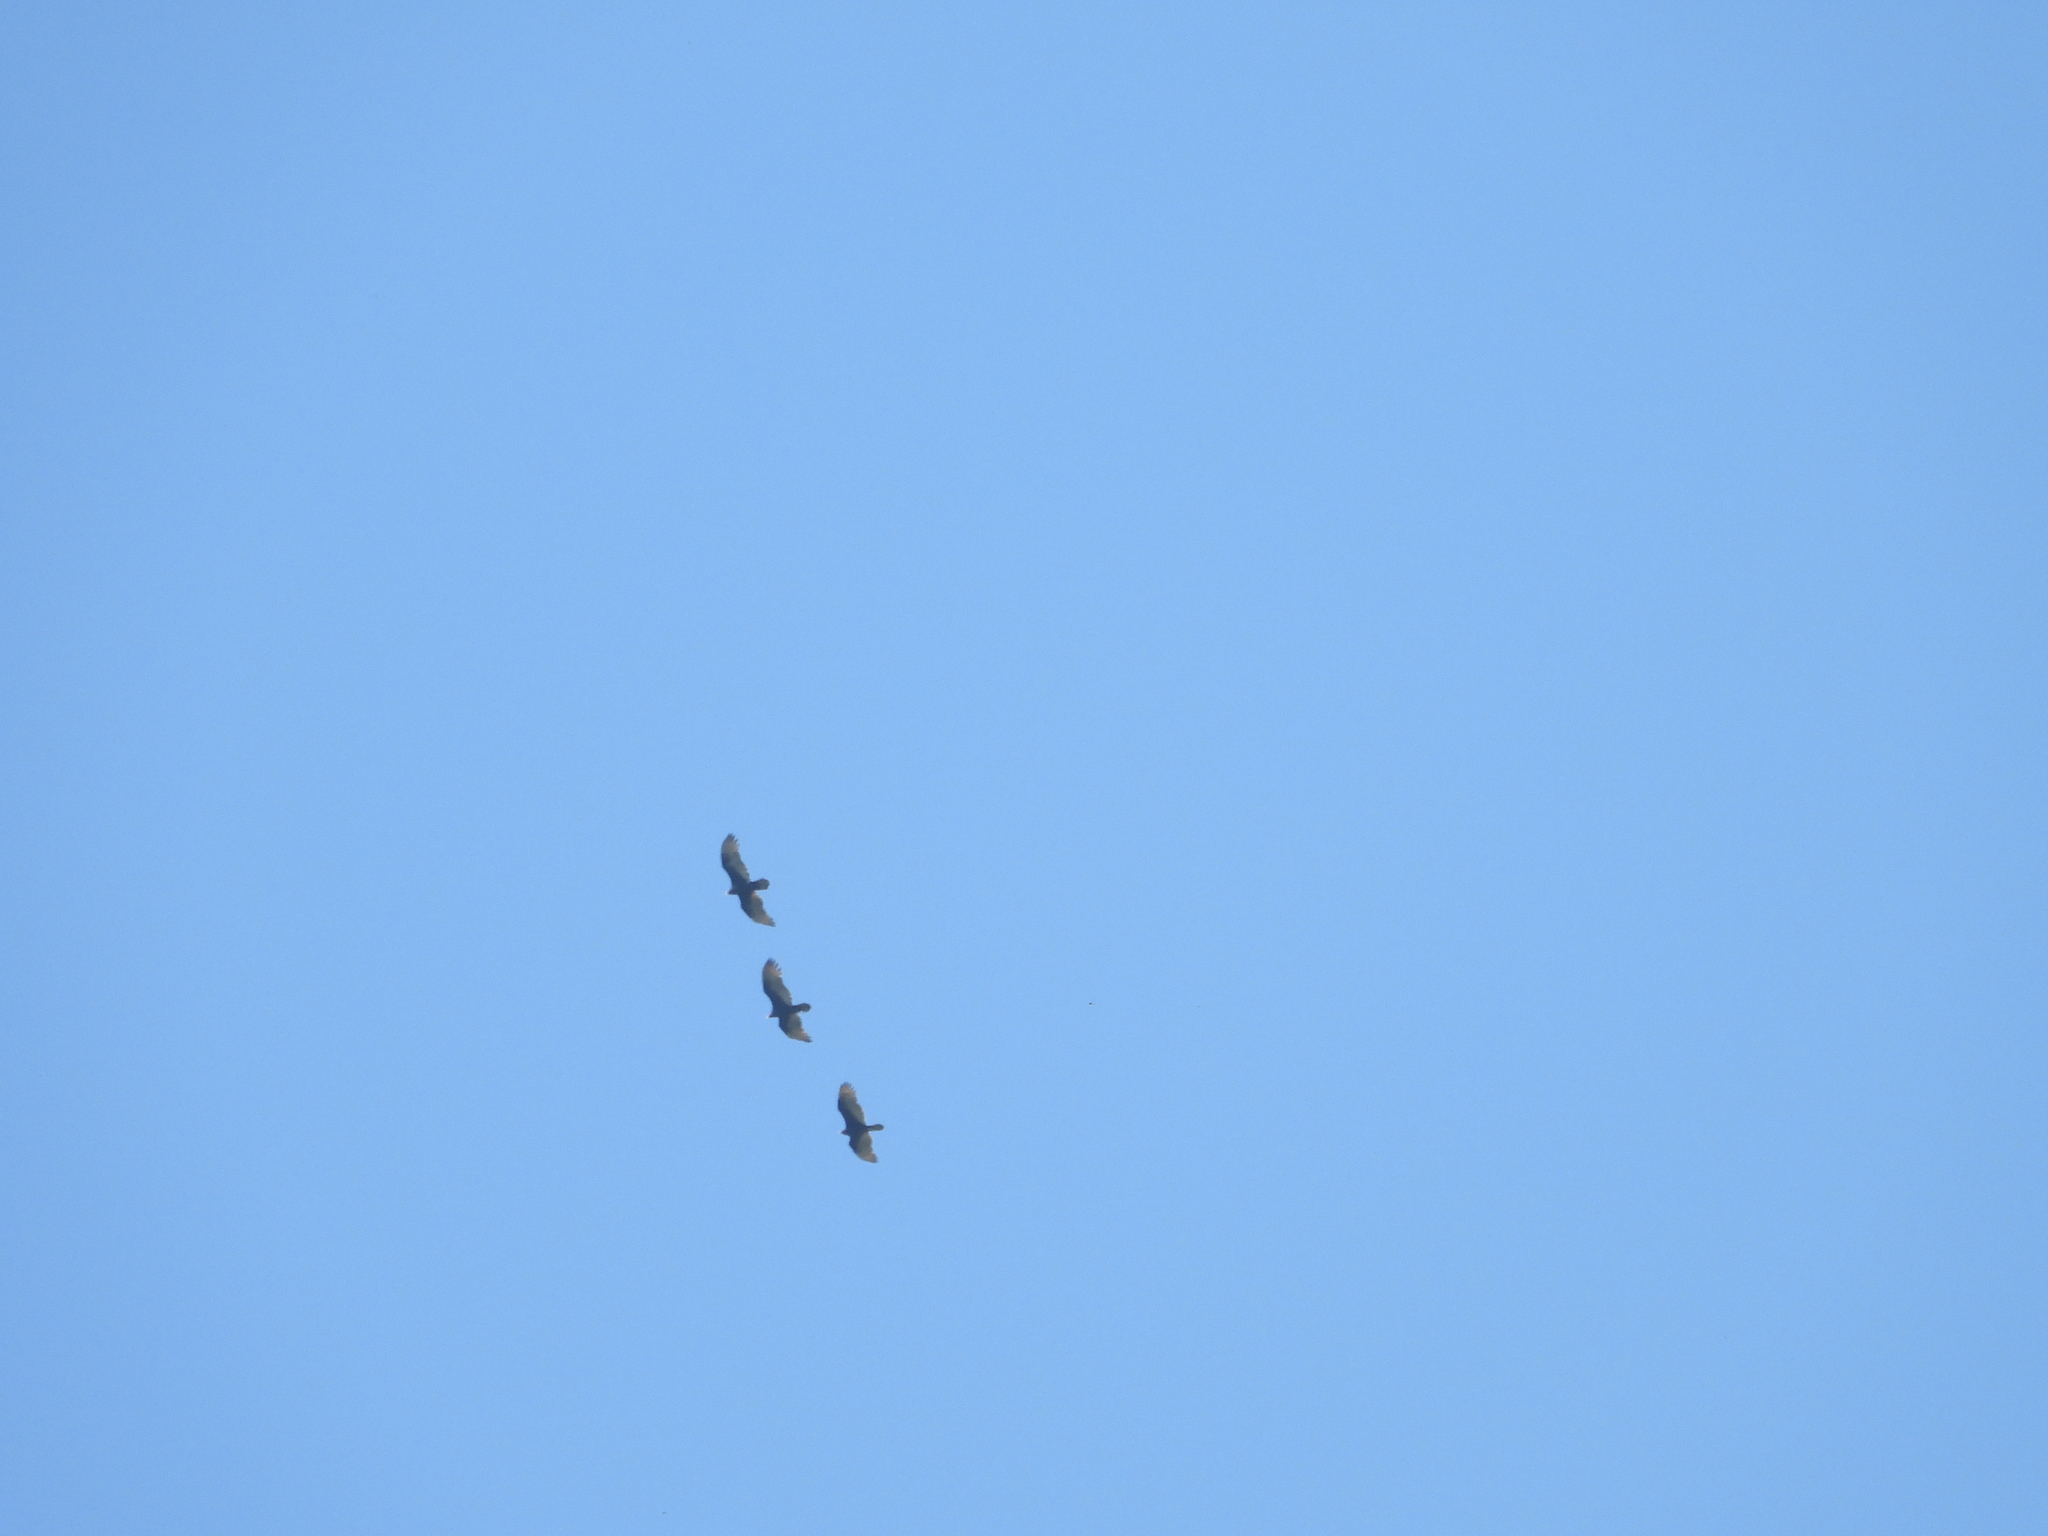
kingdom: Animalia
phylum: Chordata
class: Aves
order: Accipitriformes
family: Cathartidae
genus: Cathartes
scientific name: Cathartes aura
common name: Turkey vulture
